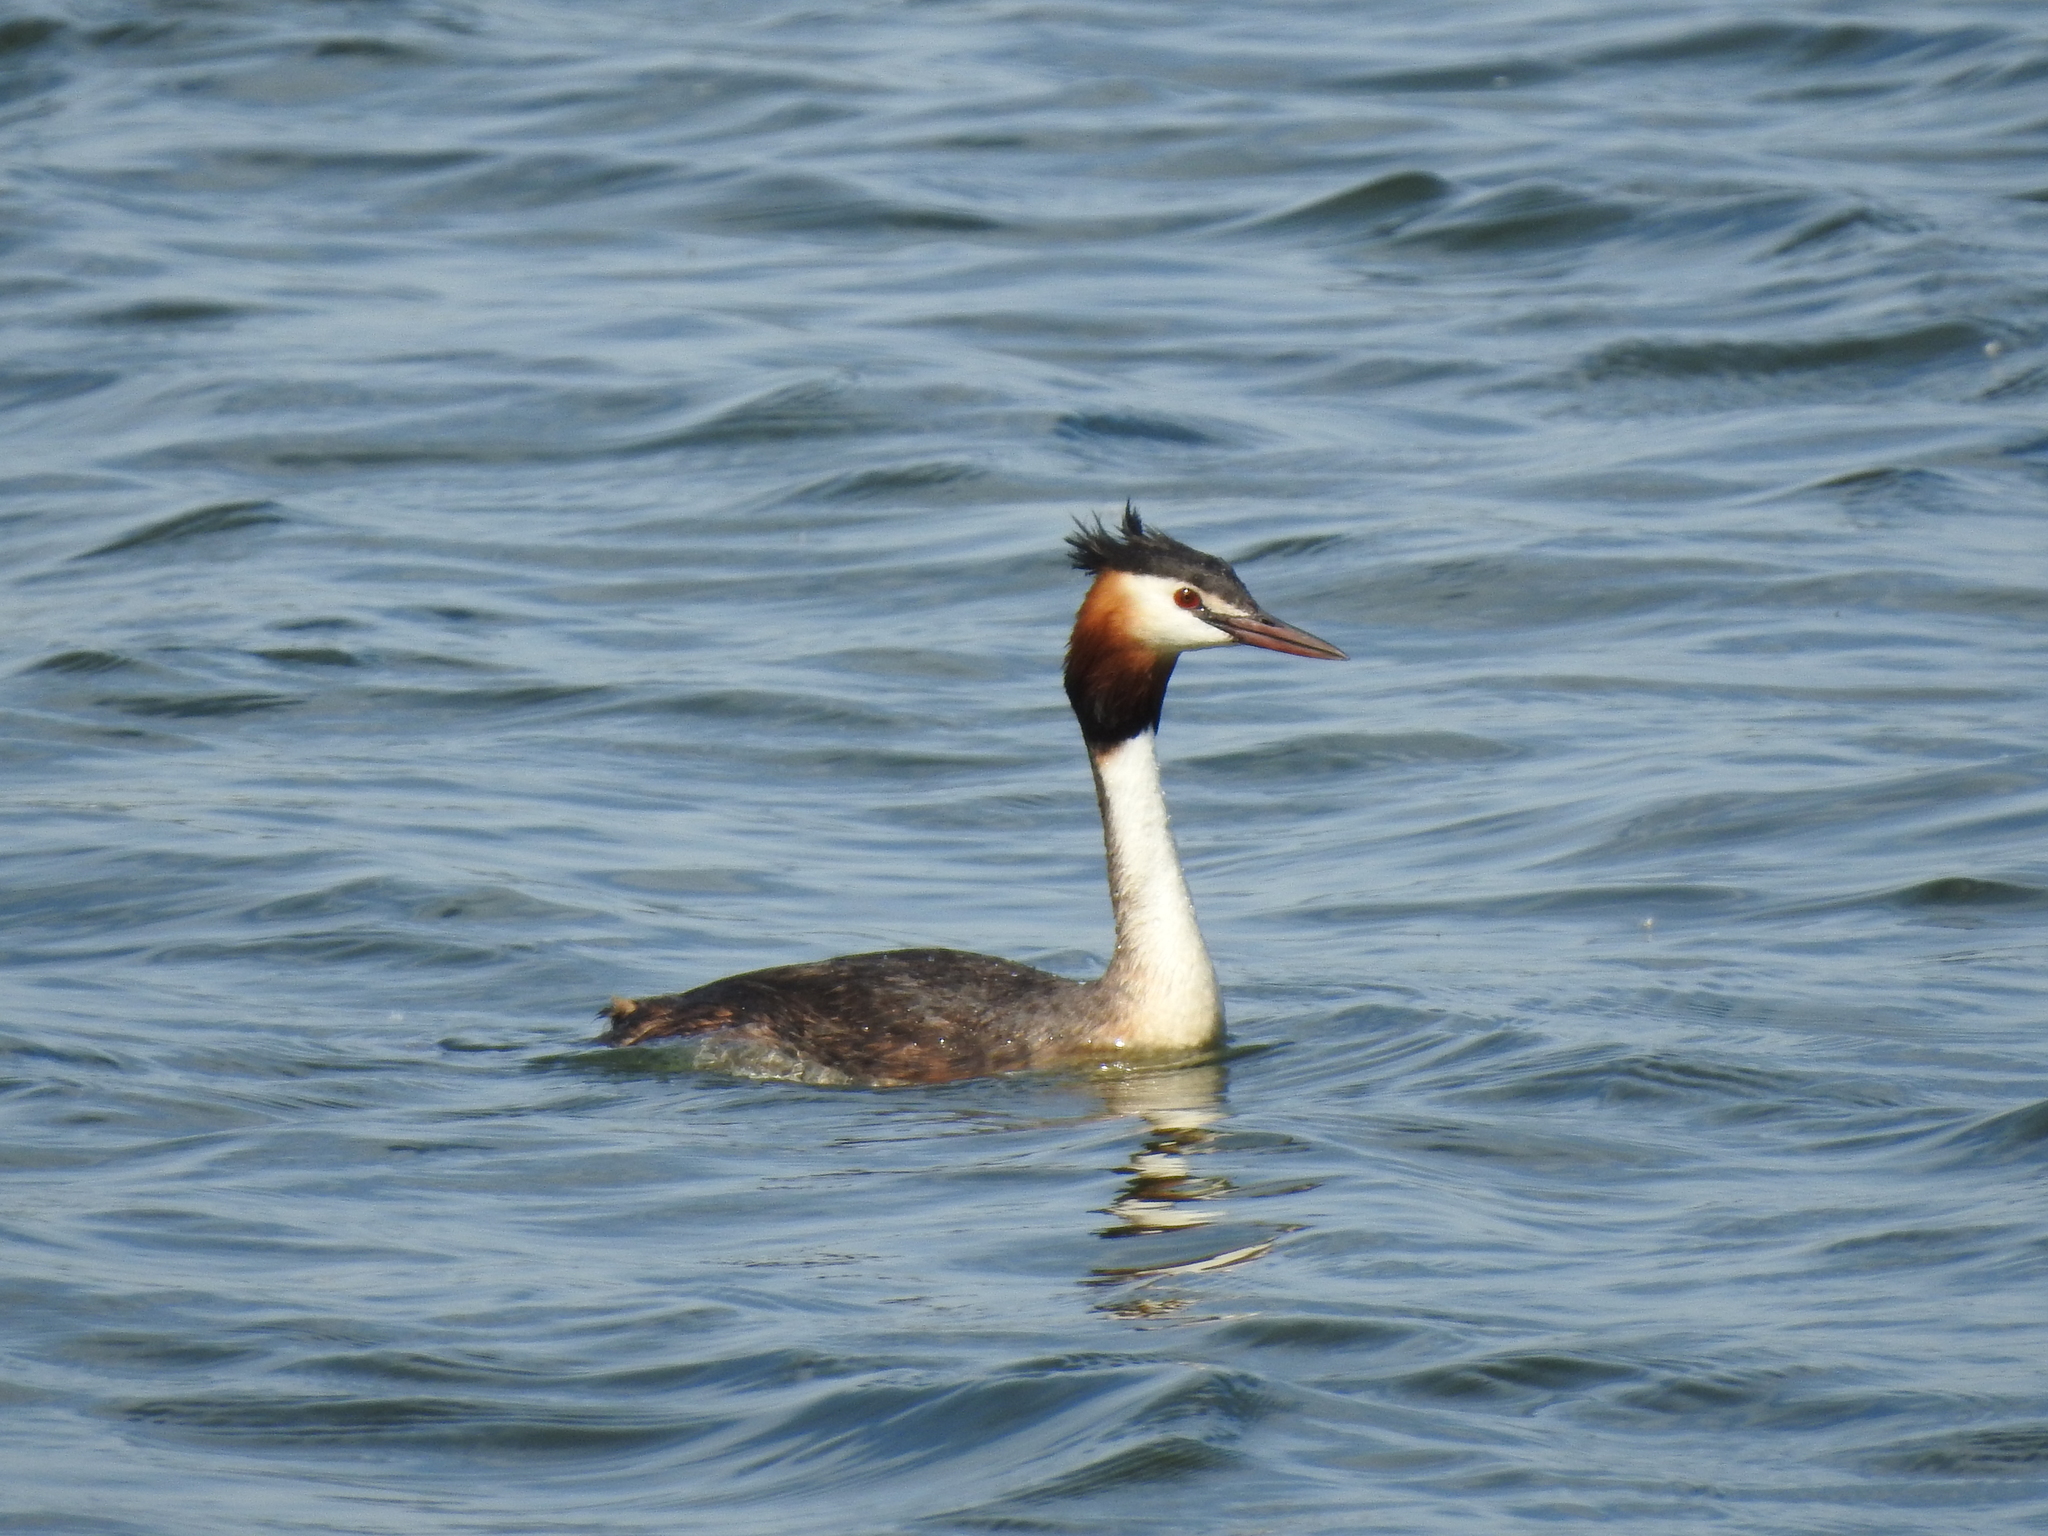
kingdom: Animalia
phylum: Chordata
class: Aves
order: Podicipediformes
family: Podicipedidae
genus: Podiceps
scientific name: Podiceps cristatus
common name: Great crested grebe
